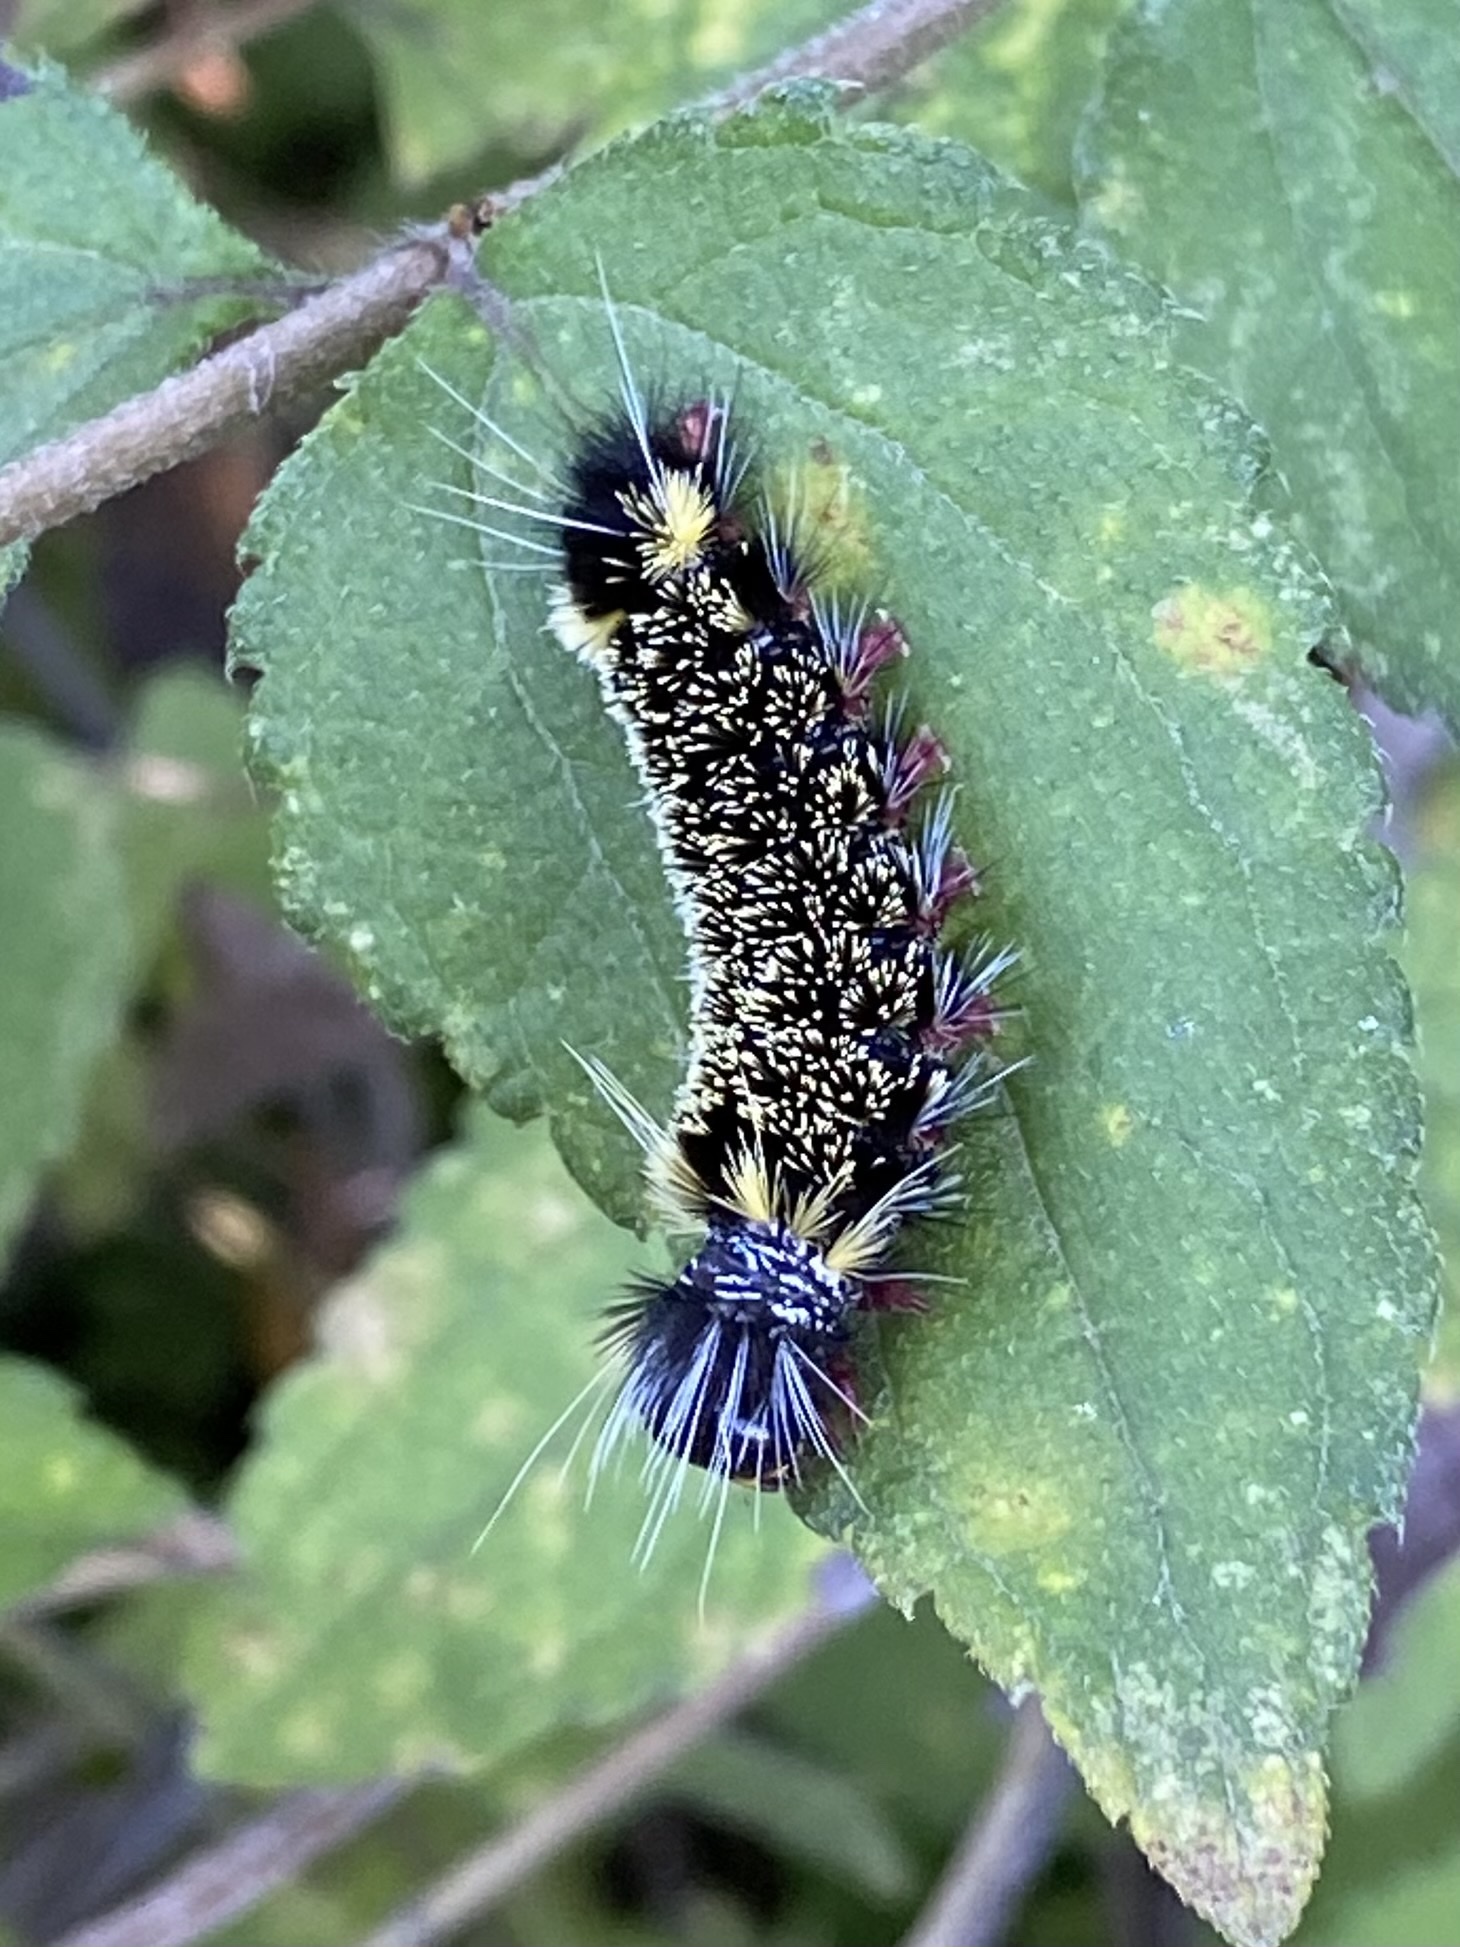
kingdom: Animalia
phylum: Arthropoda
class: Insecta
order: Lepidoptera
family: Erebidae
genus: Hypocrisias
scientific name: Hypocrisias minima
